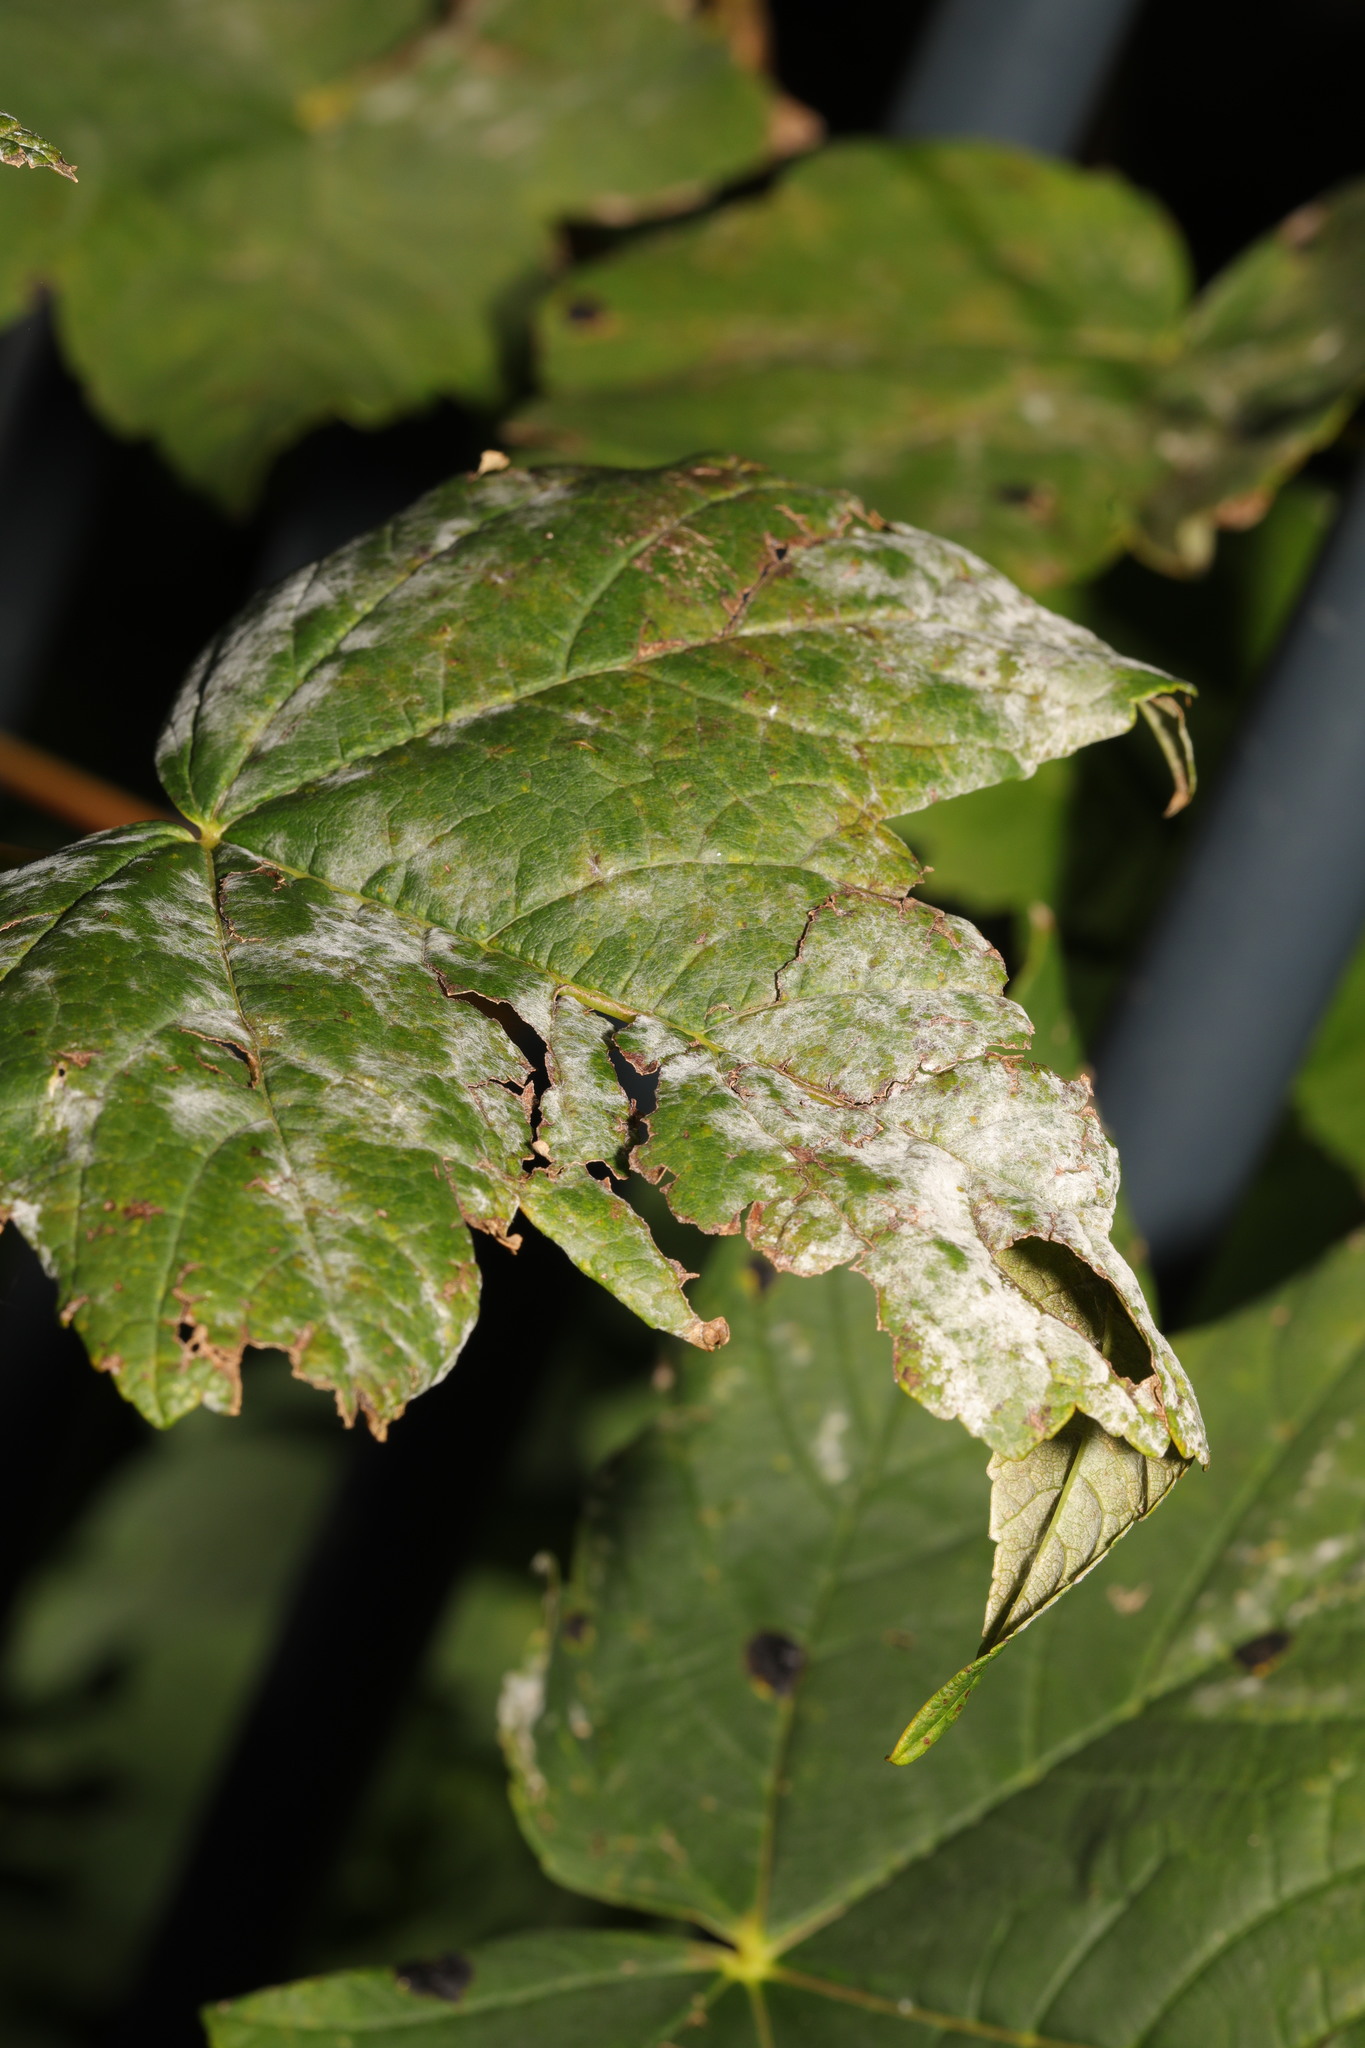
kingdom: Fungi
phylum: Ascomycota
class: Leotiomycetes
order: Helotiales
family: Erysiphaceae
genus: Sawadaea
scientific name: Sawadaea bicornis
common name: Maple mildew
